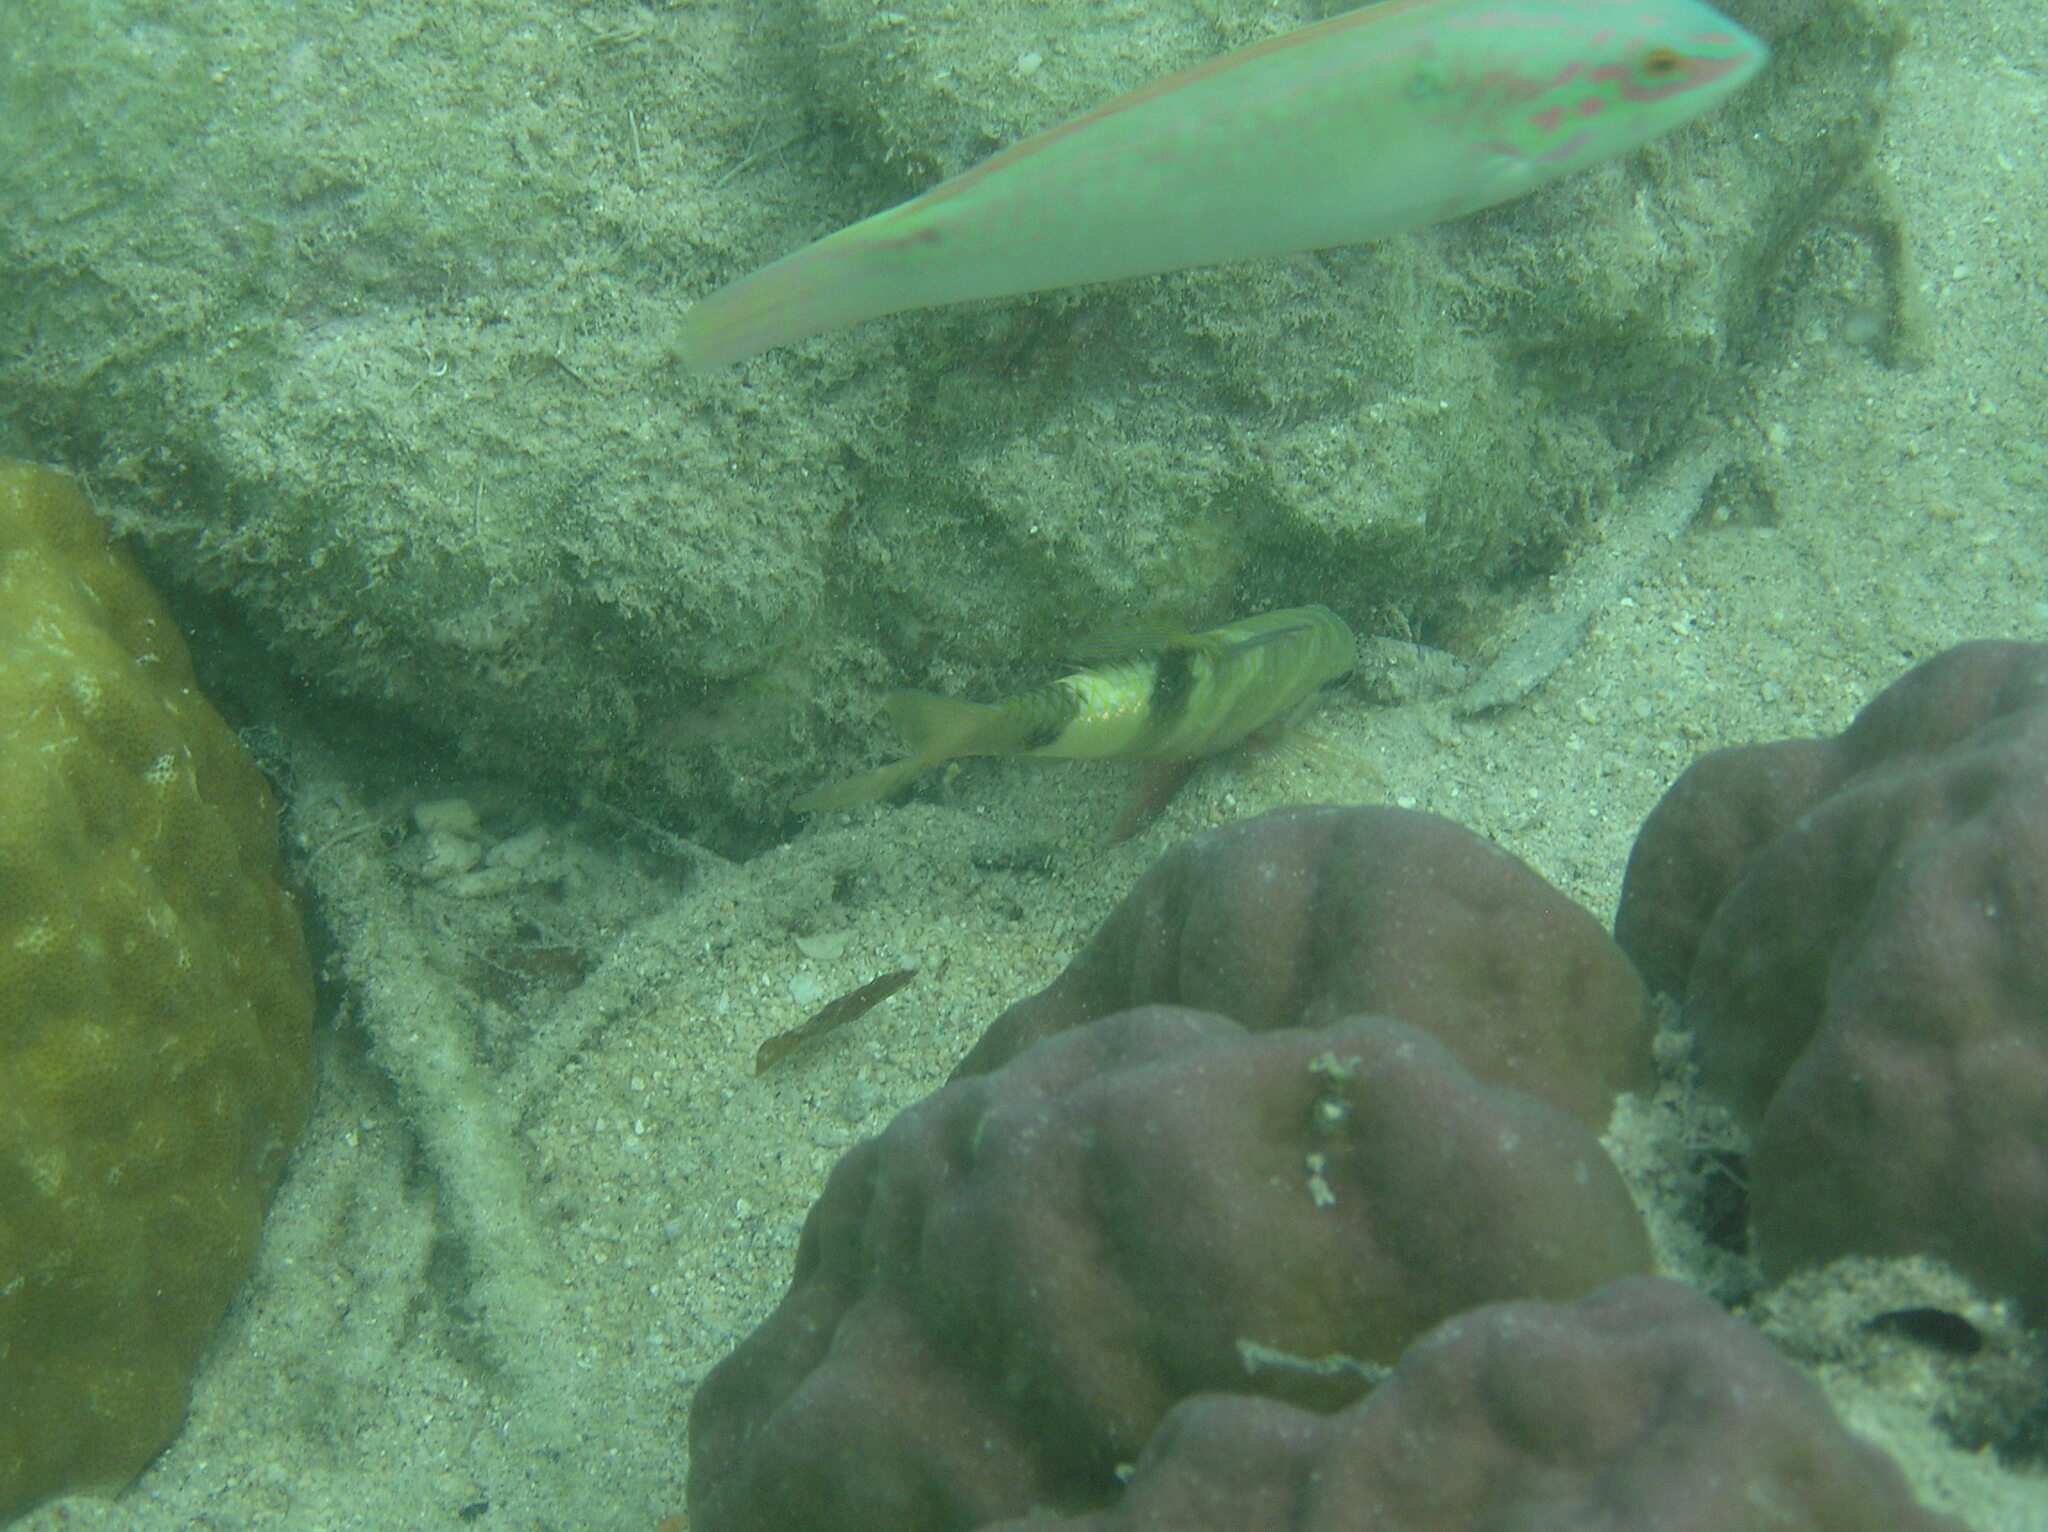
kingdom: Animalia
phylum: Chordata
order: Perciformes
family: Mullidae
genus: Parupeneus
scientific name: Parupeneus multifasciatus
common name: Manybar goatfish
